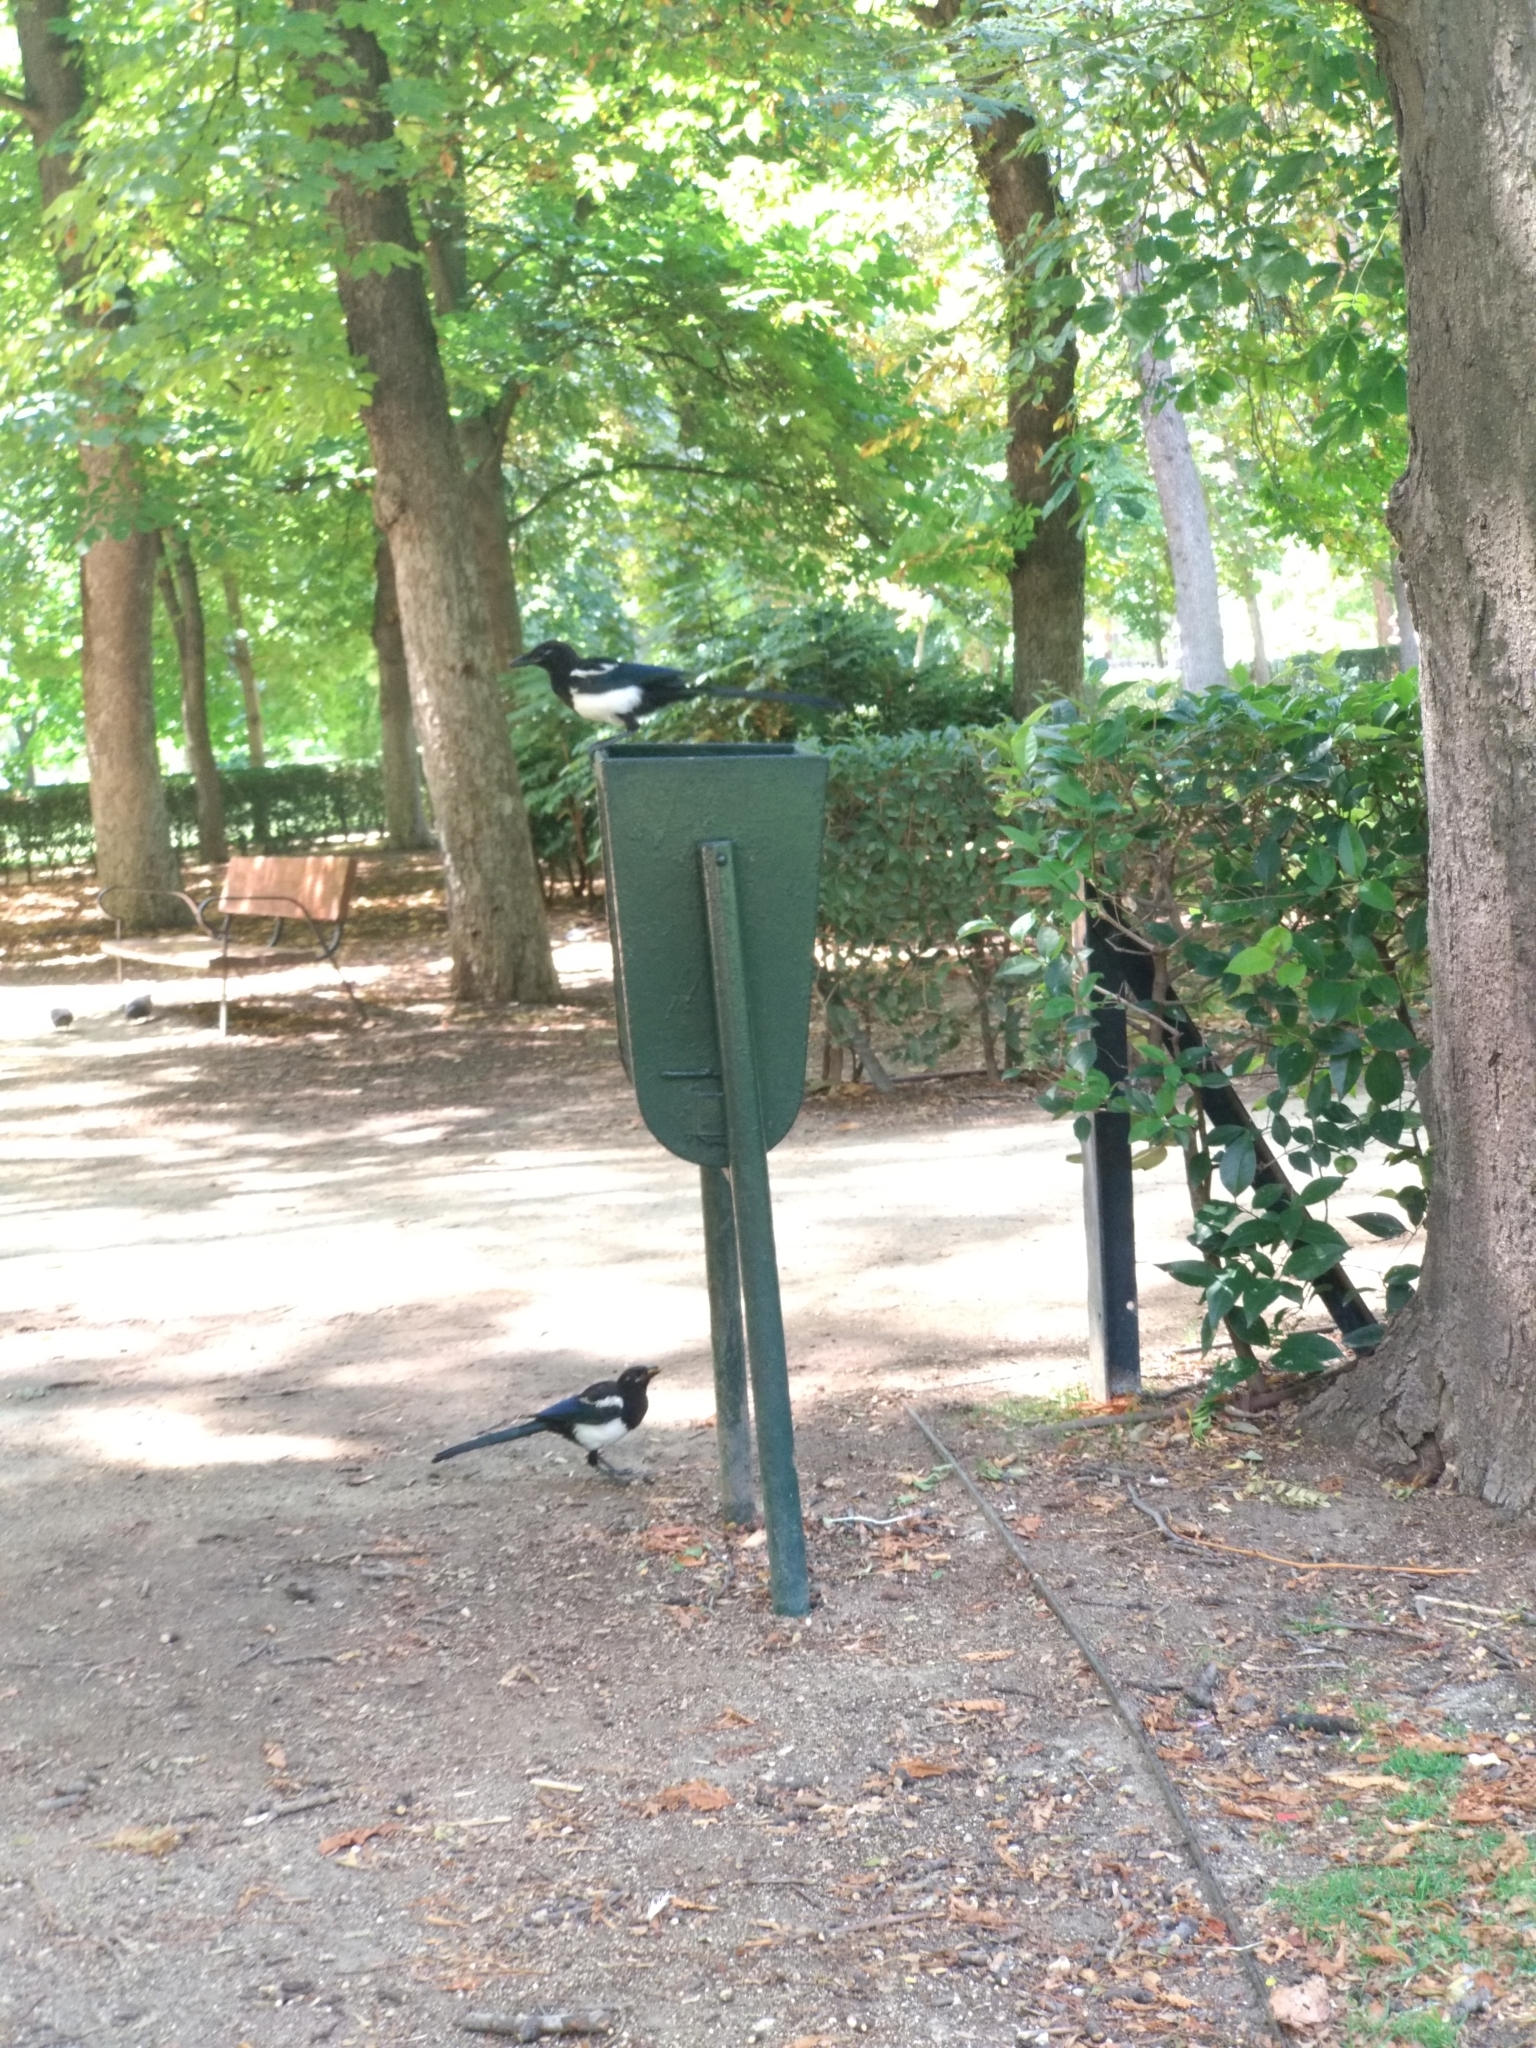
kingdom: Animalia
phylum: Chordata
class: Aves
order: Passeriformes
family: Corvidae
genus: Pica
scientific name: Pica pica
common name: Eurasian magpie
